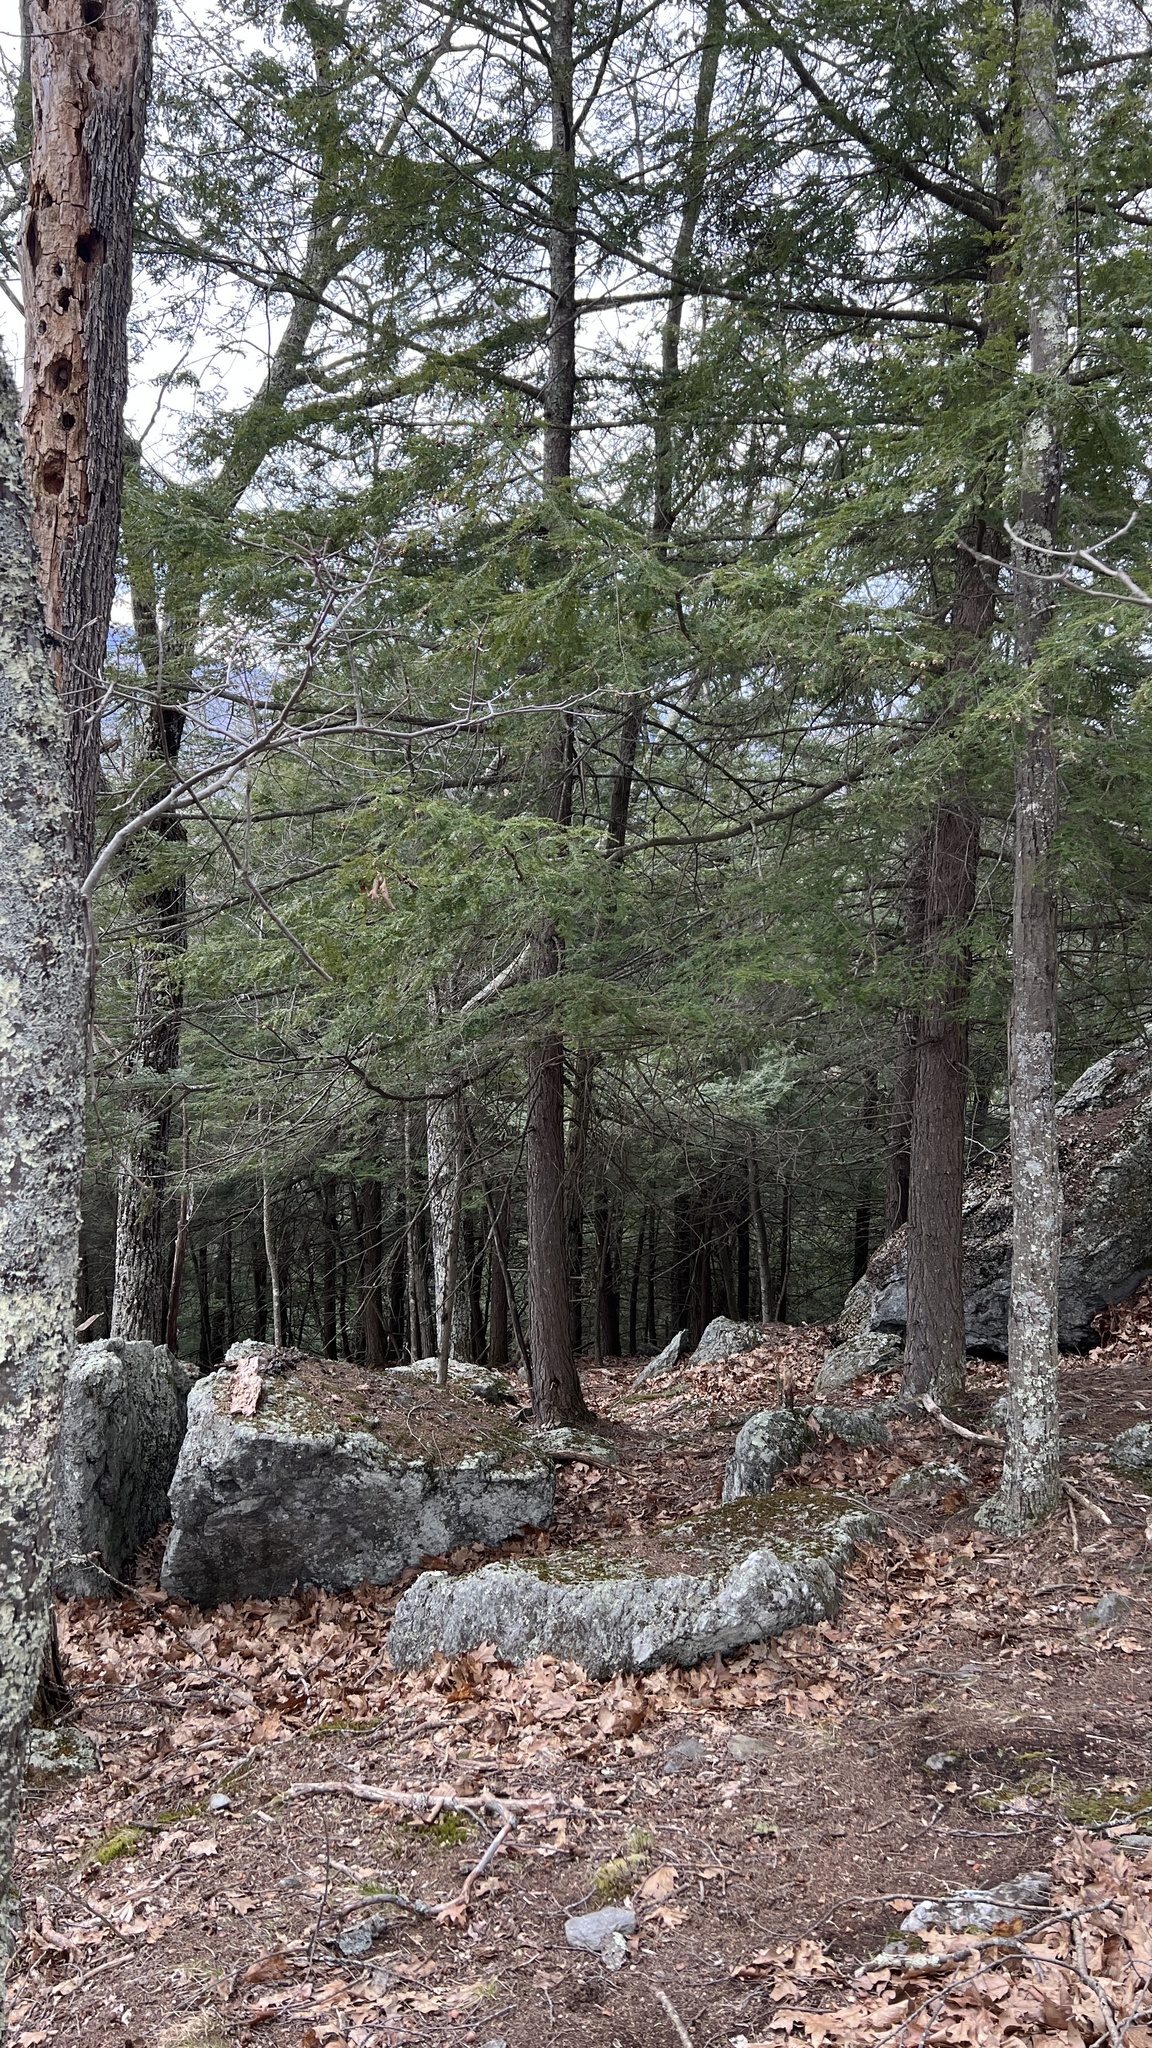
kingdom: Plantae
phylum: Tracheophyta
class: Pinopsida
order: Pinales
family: Pinaceae
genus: Tsuga
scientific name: Tsuga canadensis
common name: Eastern hemlock
